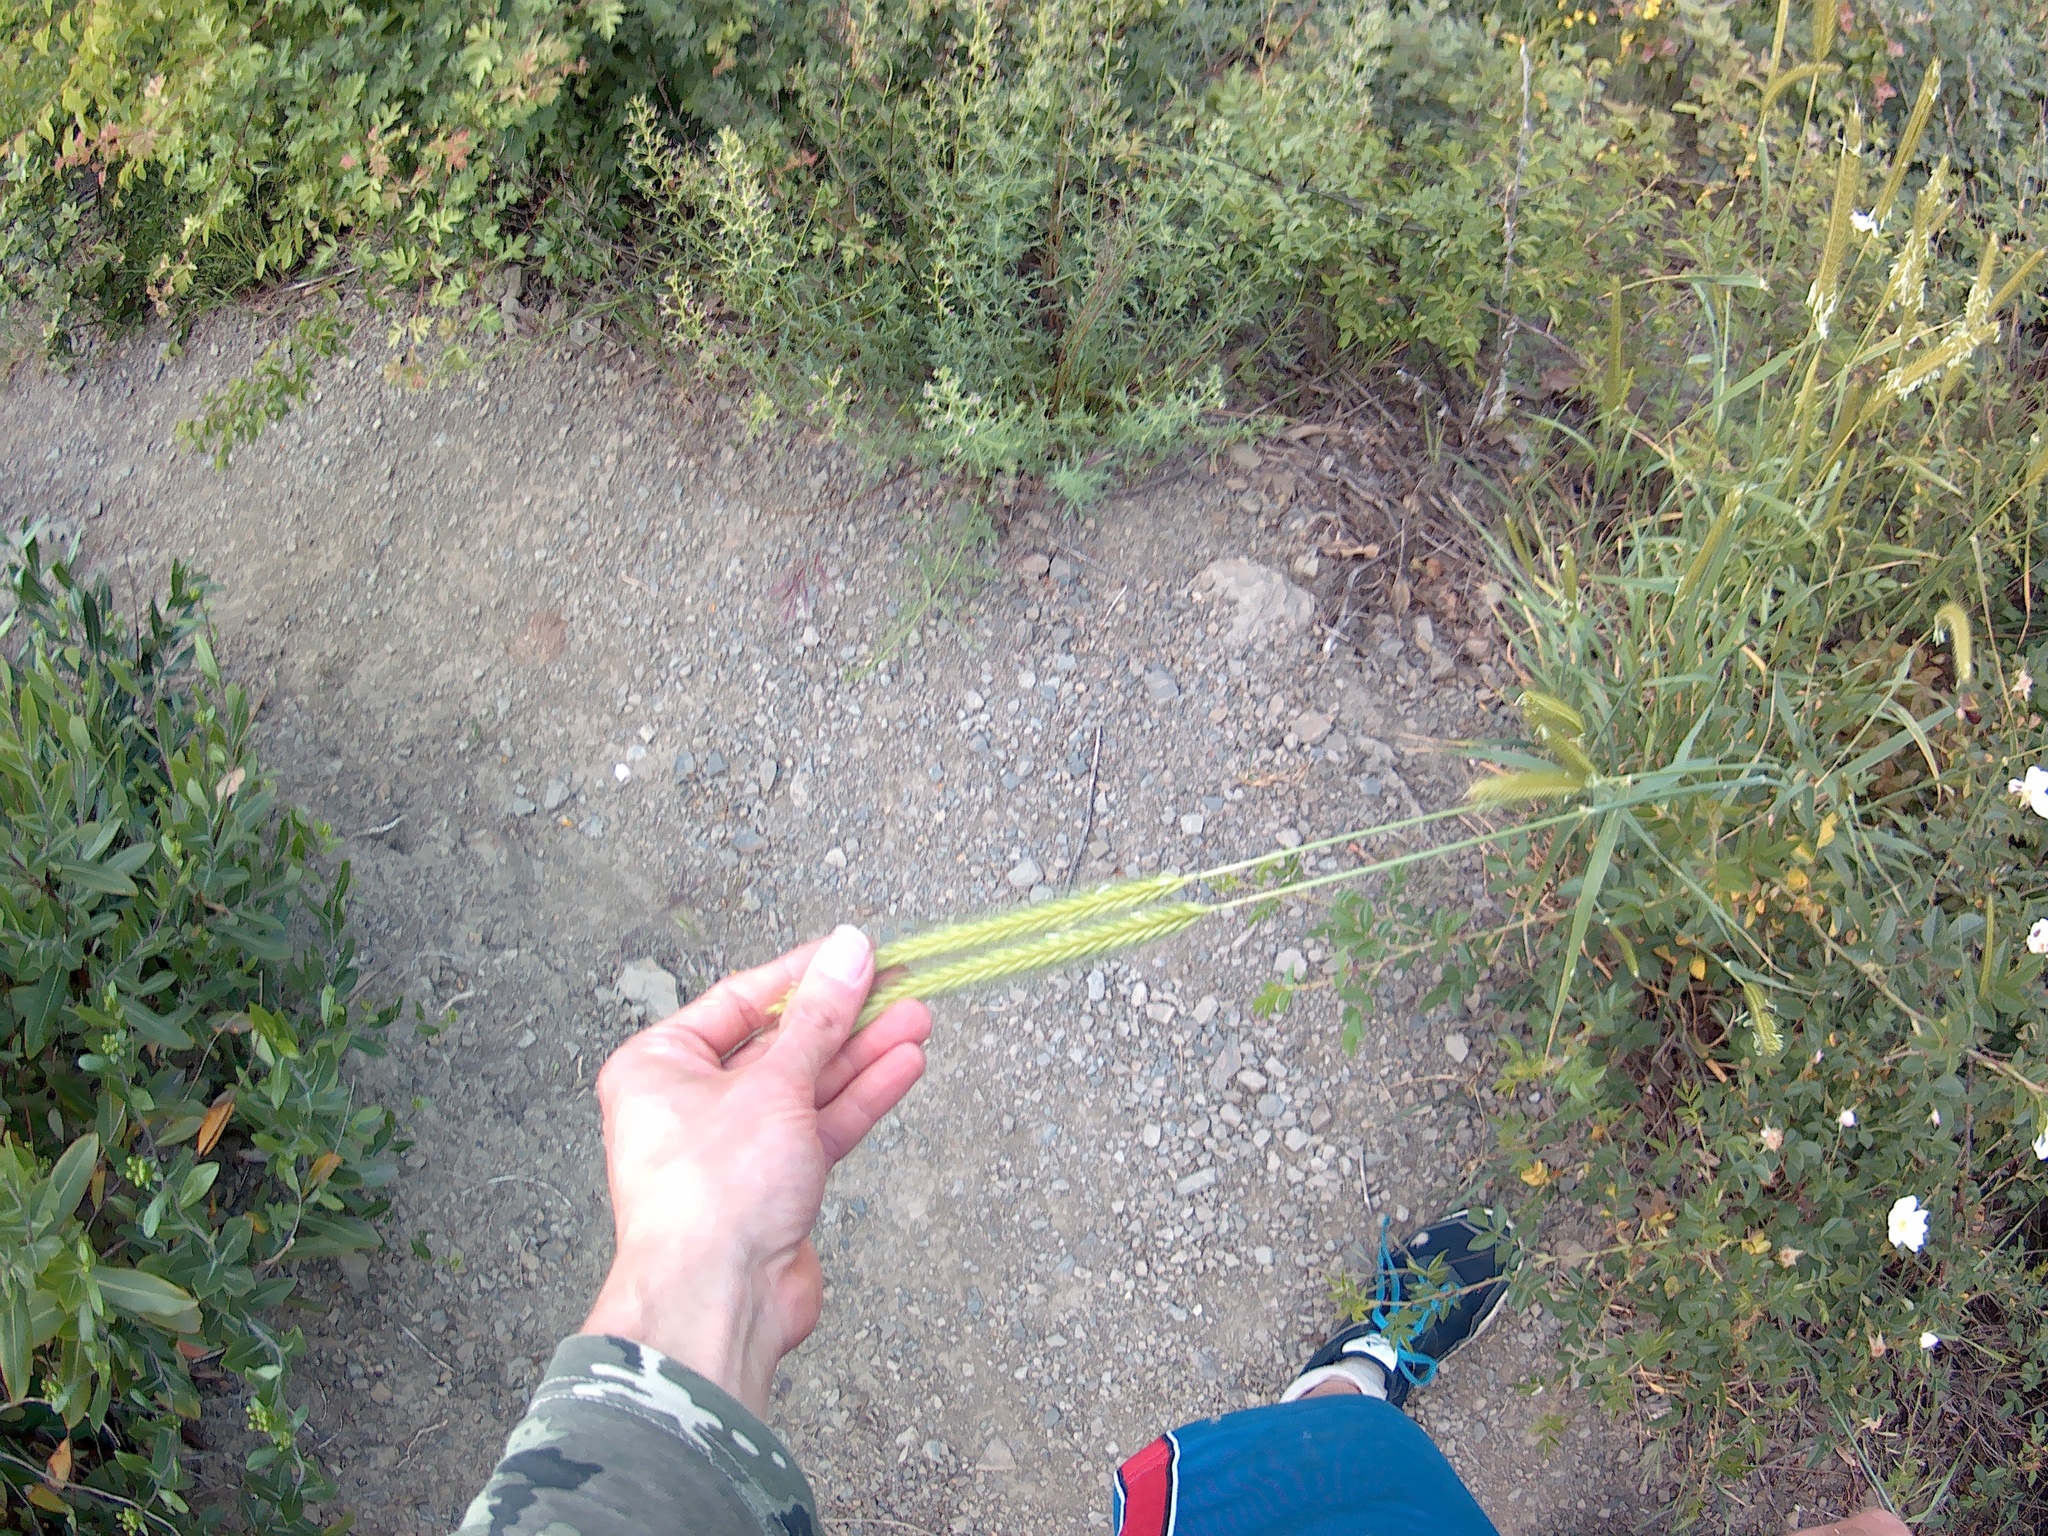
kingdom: Plantae
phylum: Tracheophyta
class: Liliopsida
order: Poales
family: Poaceae
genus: Hordeum
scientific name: Hordeum bulbosum
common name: Bulbous barley
